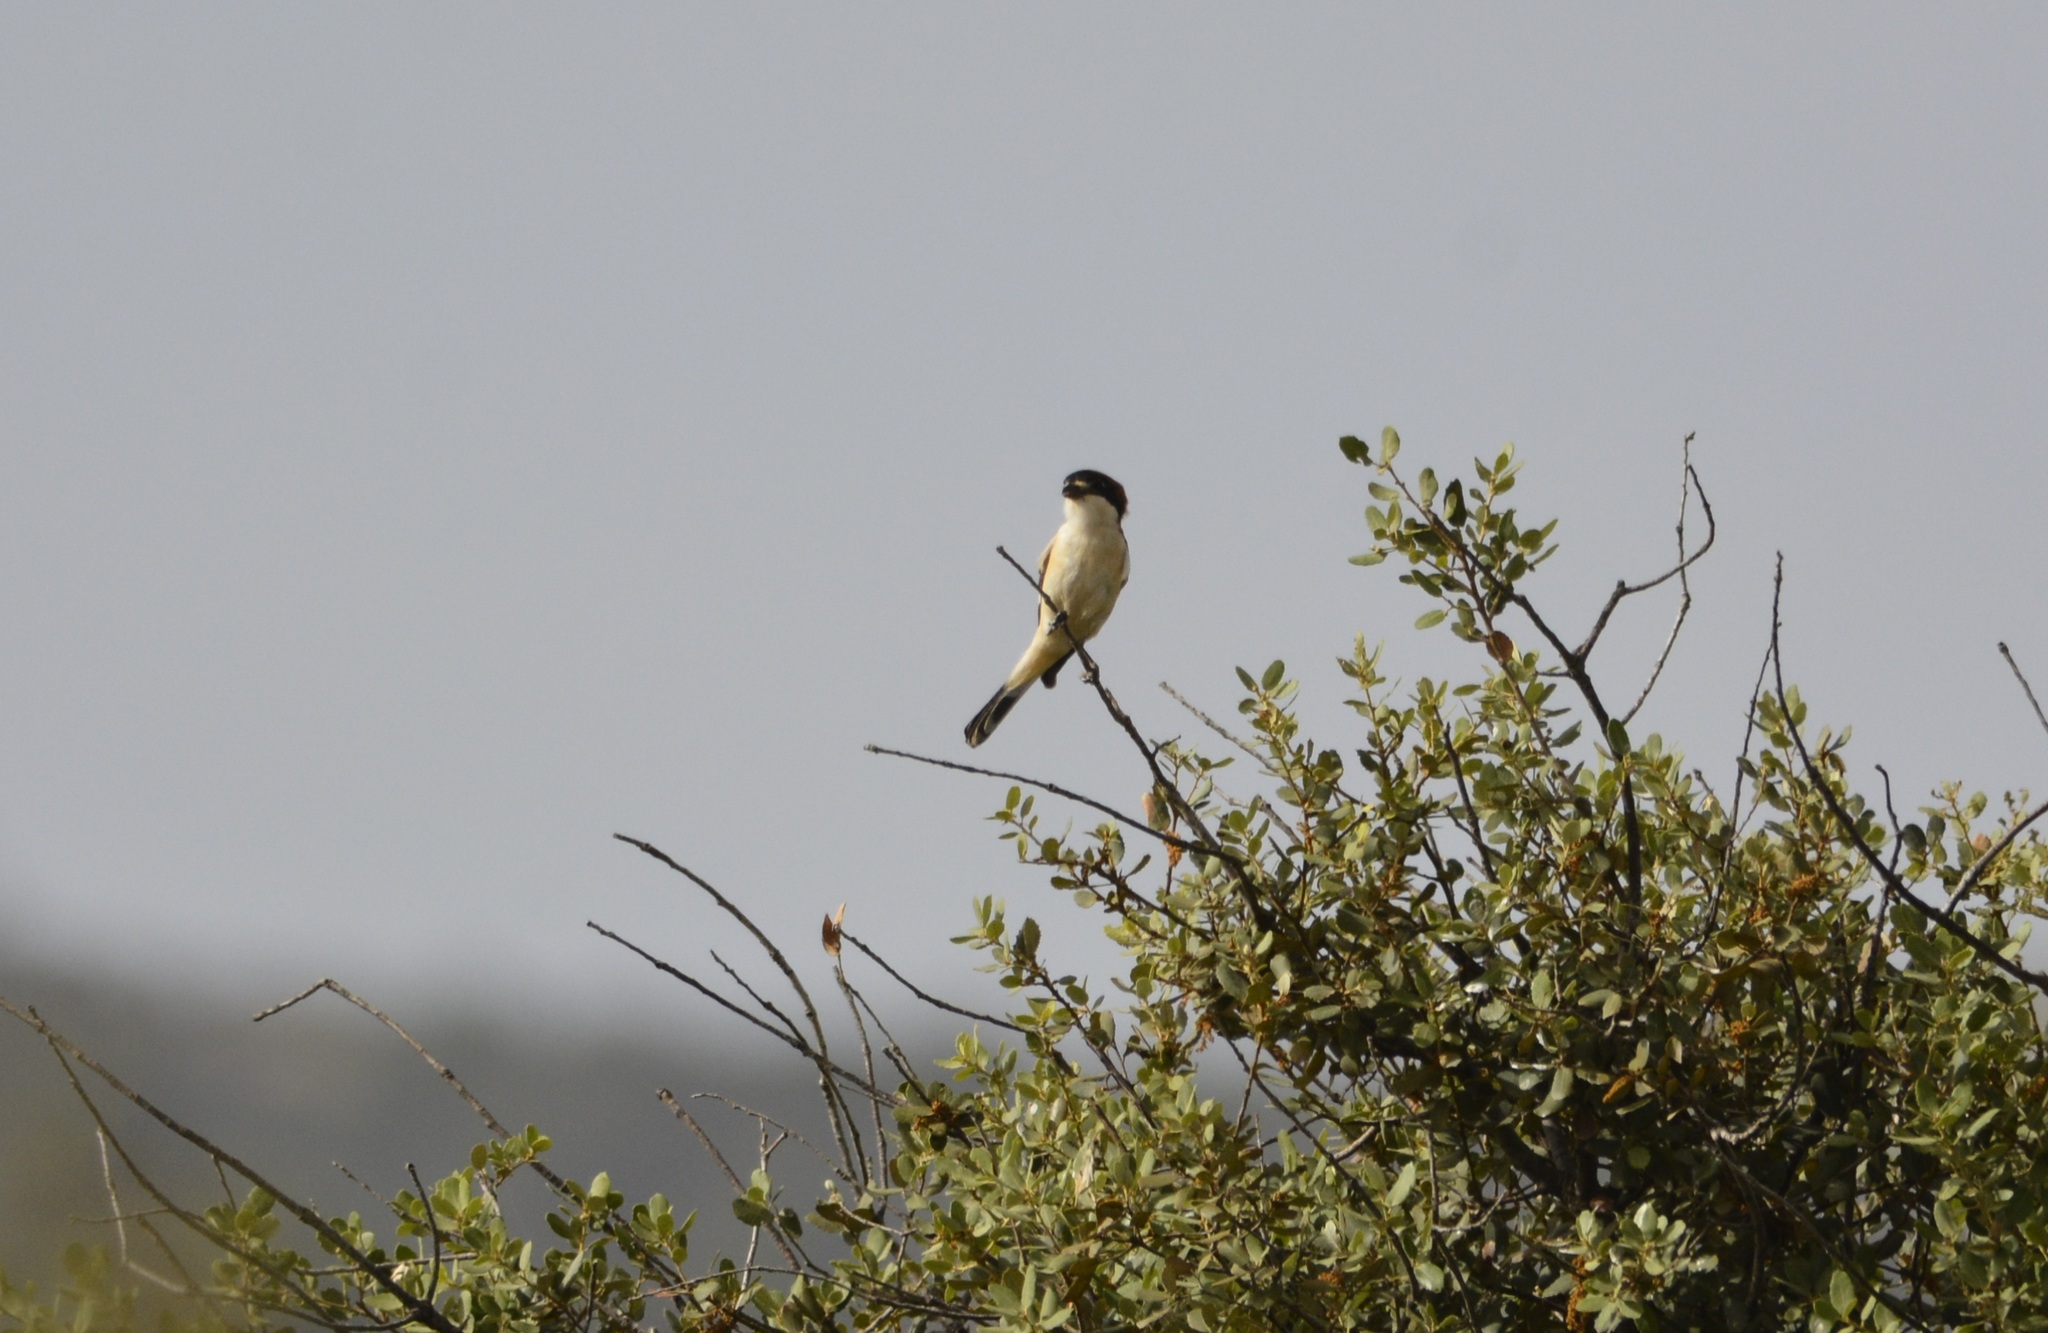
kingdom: Animalia
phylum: Chordata
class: Aves
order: Passeriformes
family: Laniidae
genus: Lanius
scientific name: Lanius senator
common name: Woodchat shrike
